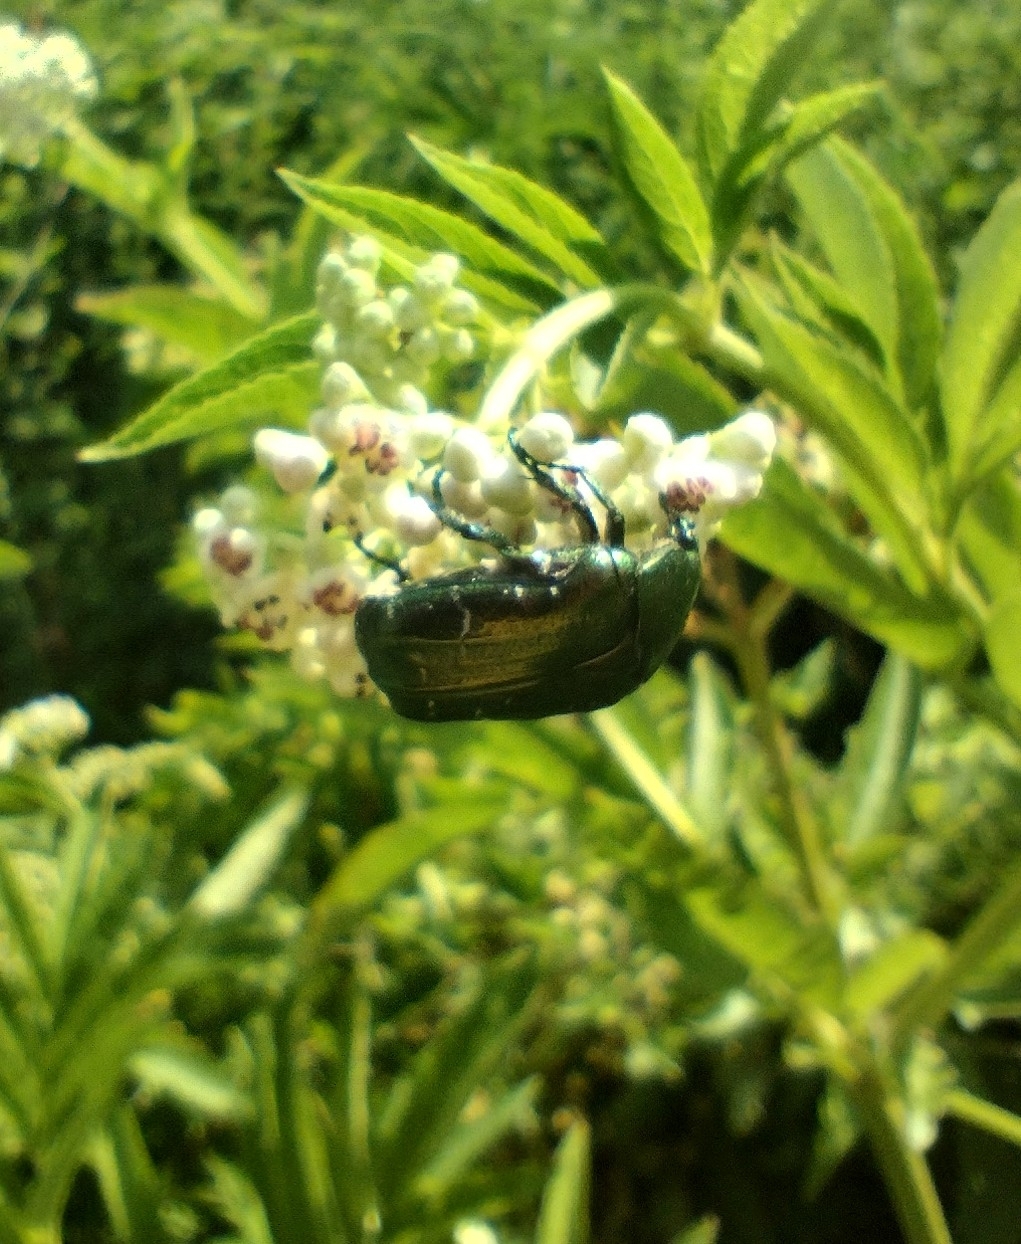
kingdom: Animalia
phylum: Arthropoda
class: Insecta
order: Coleoptera
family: Scarabaeidae
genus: Cetonia
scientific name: Cetonia aurata
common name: Rose chafer
